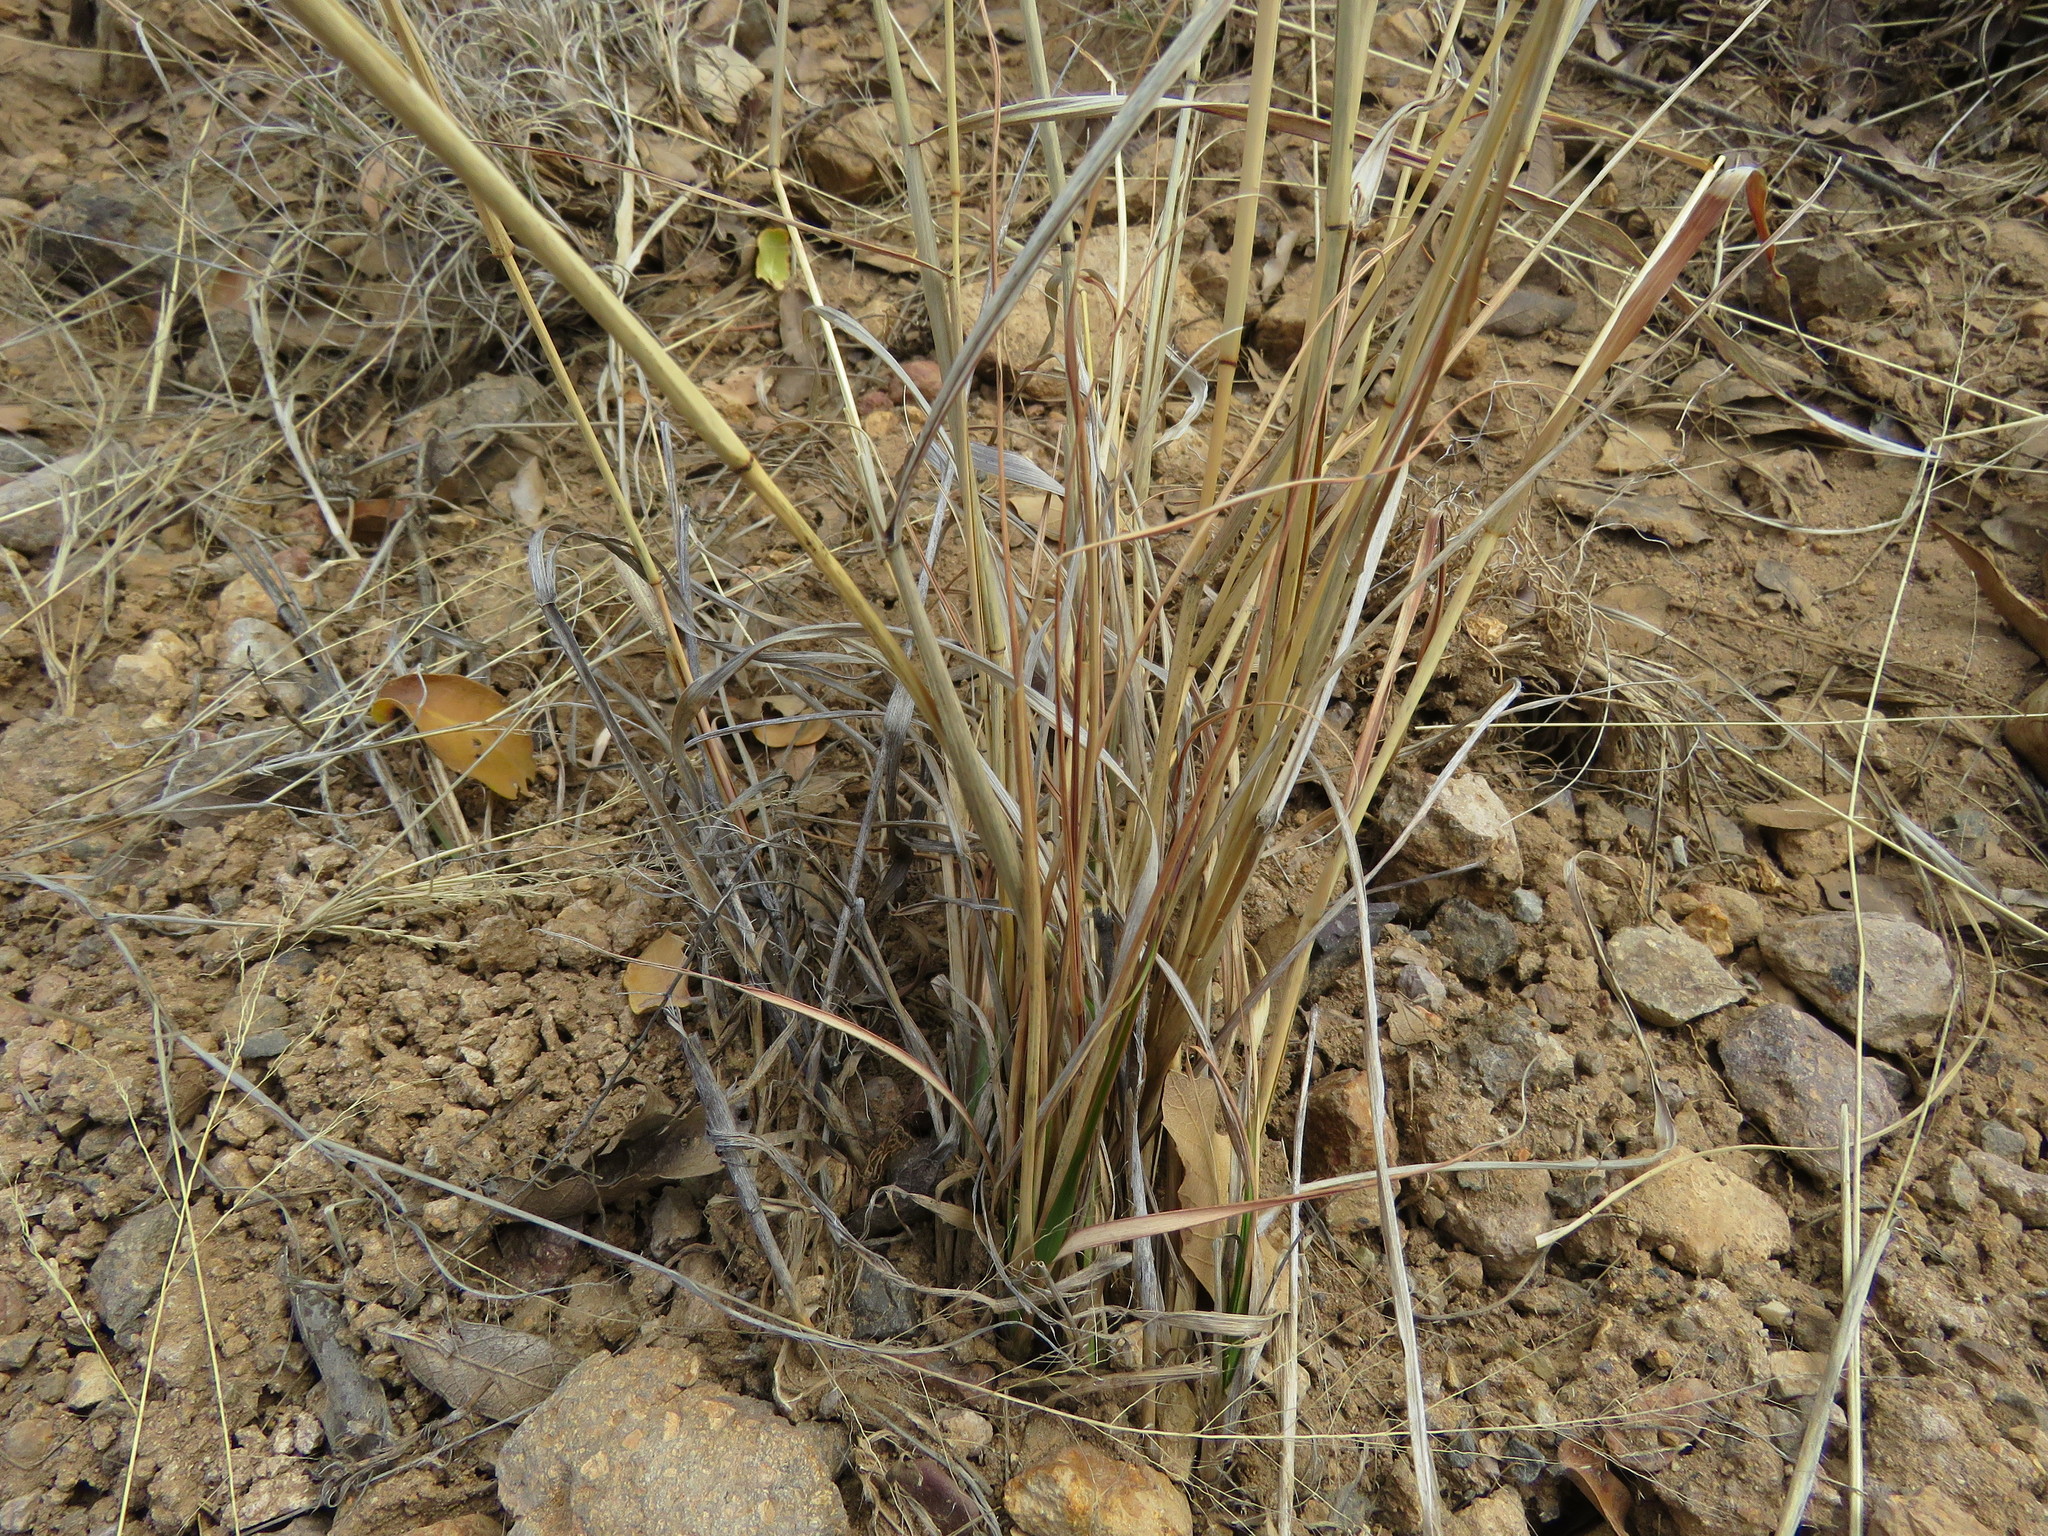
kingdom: Plantae
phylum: Tracheophyta
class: Liliopsida
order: Poales
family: Poaceae
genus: Eragrostis
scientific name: Eragrostis intermedia
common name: Plains love grass
